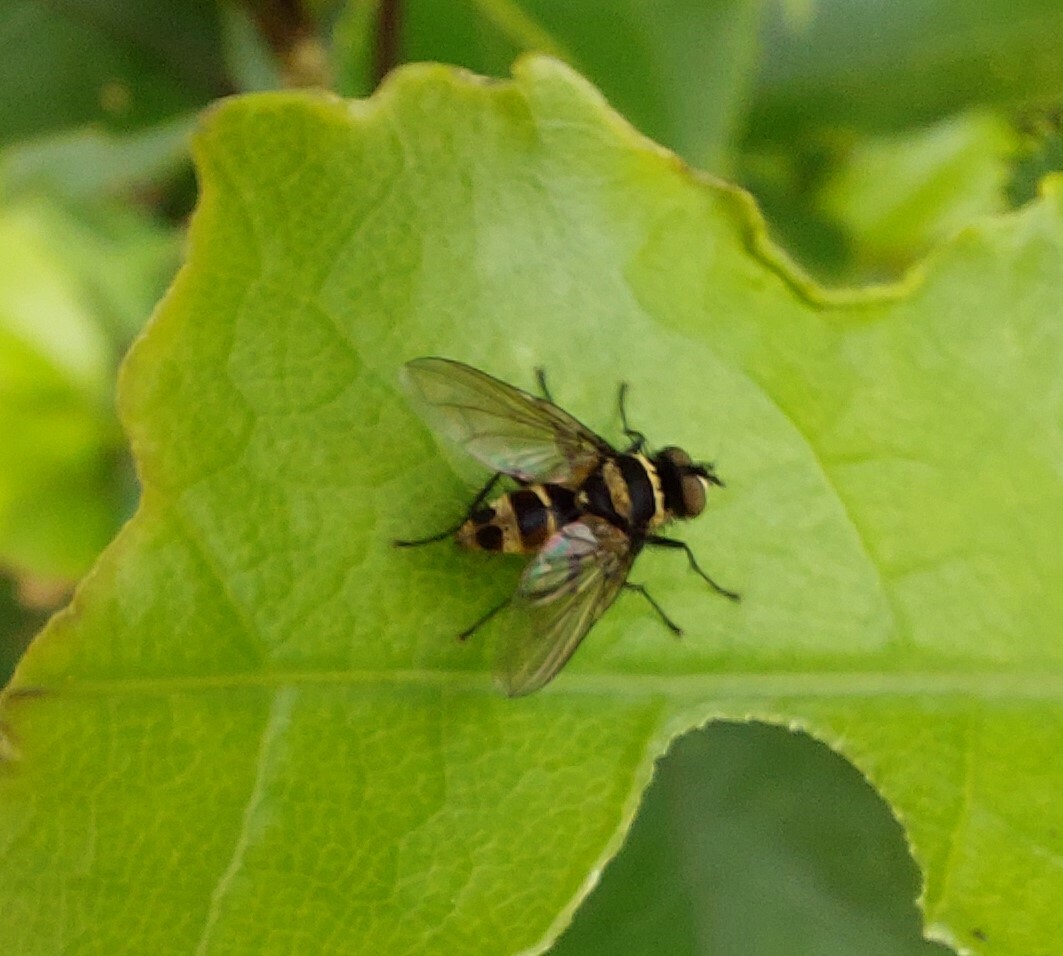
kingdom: Animalia
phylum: Arthropoda
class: Insecta
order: Diptera
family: Tachinidae
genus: Trigonospila
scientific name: Trigonospila brevifacies
